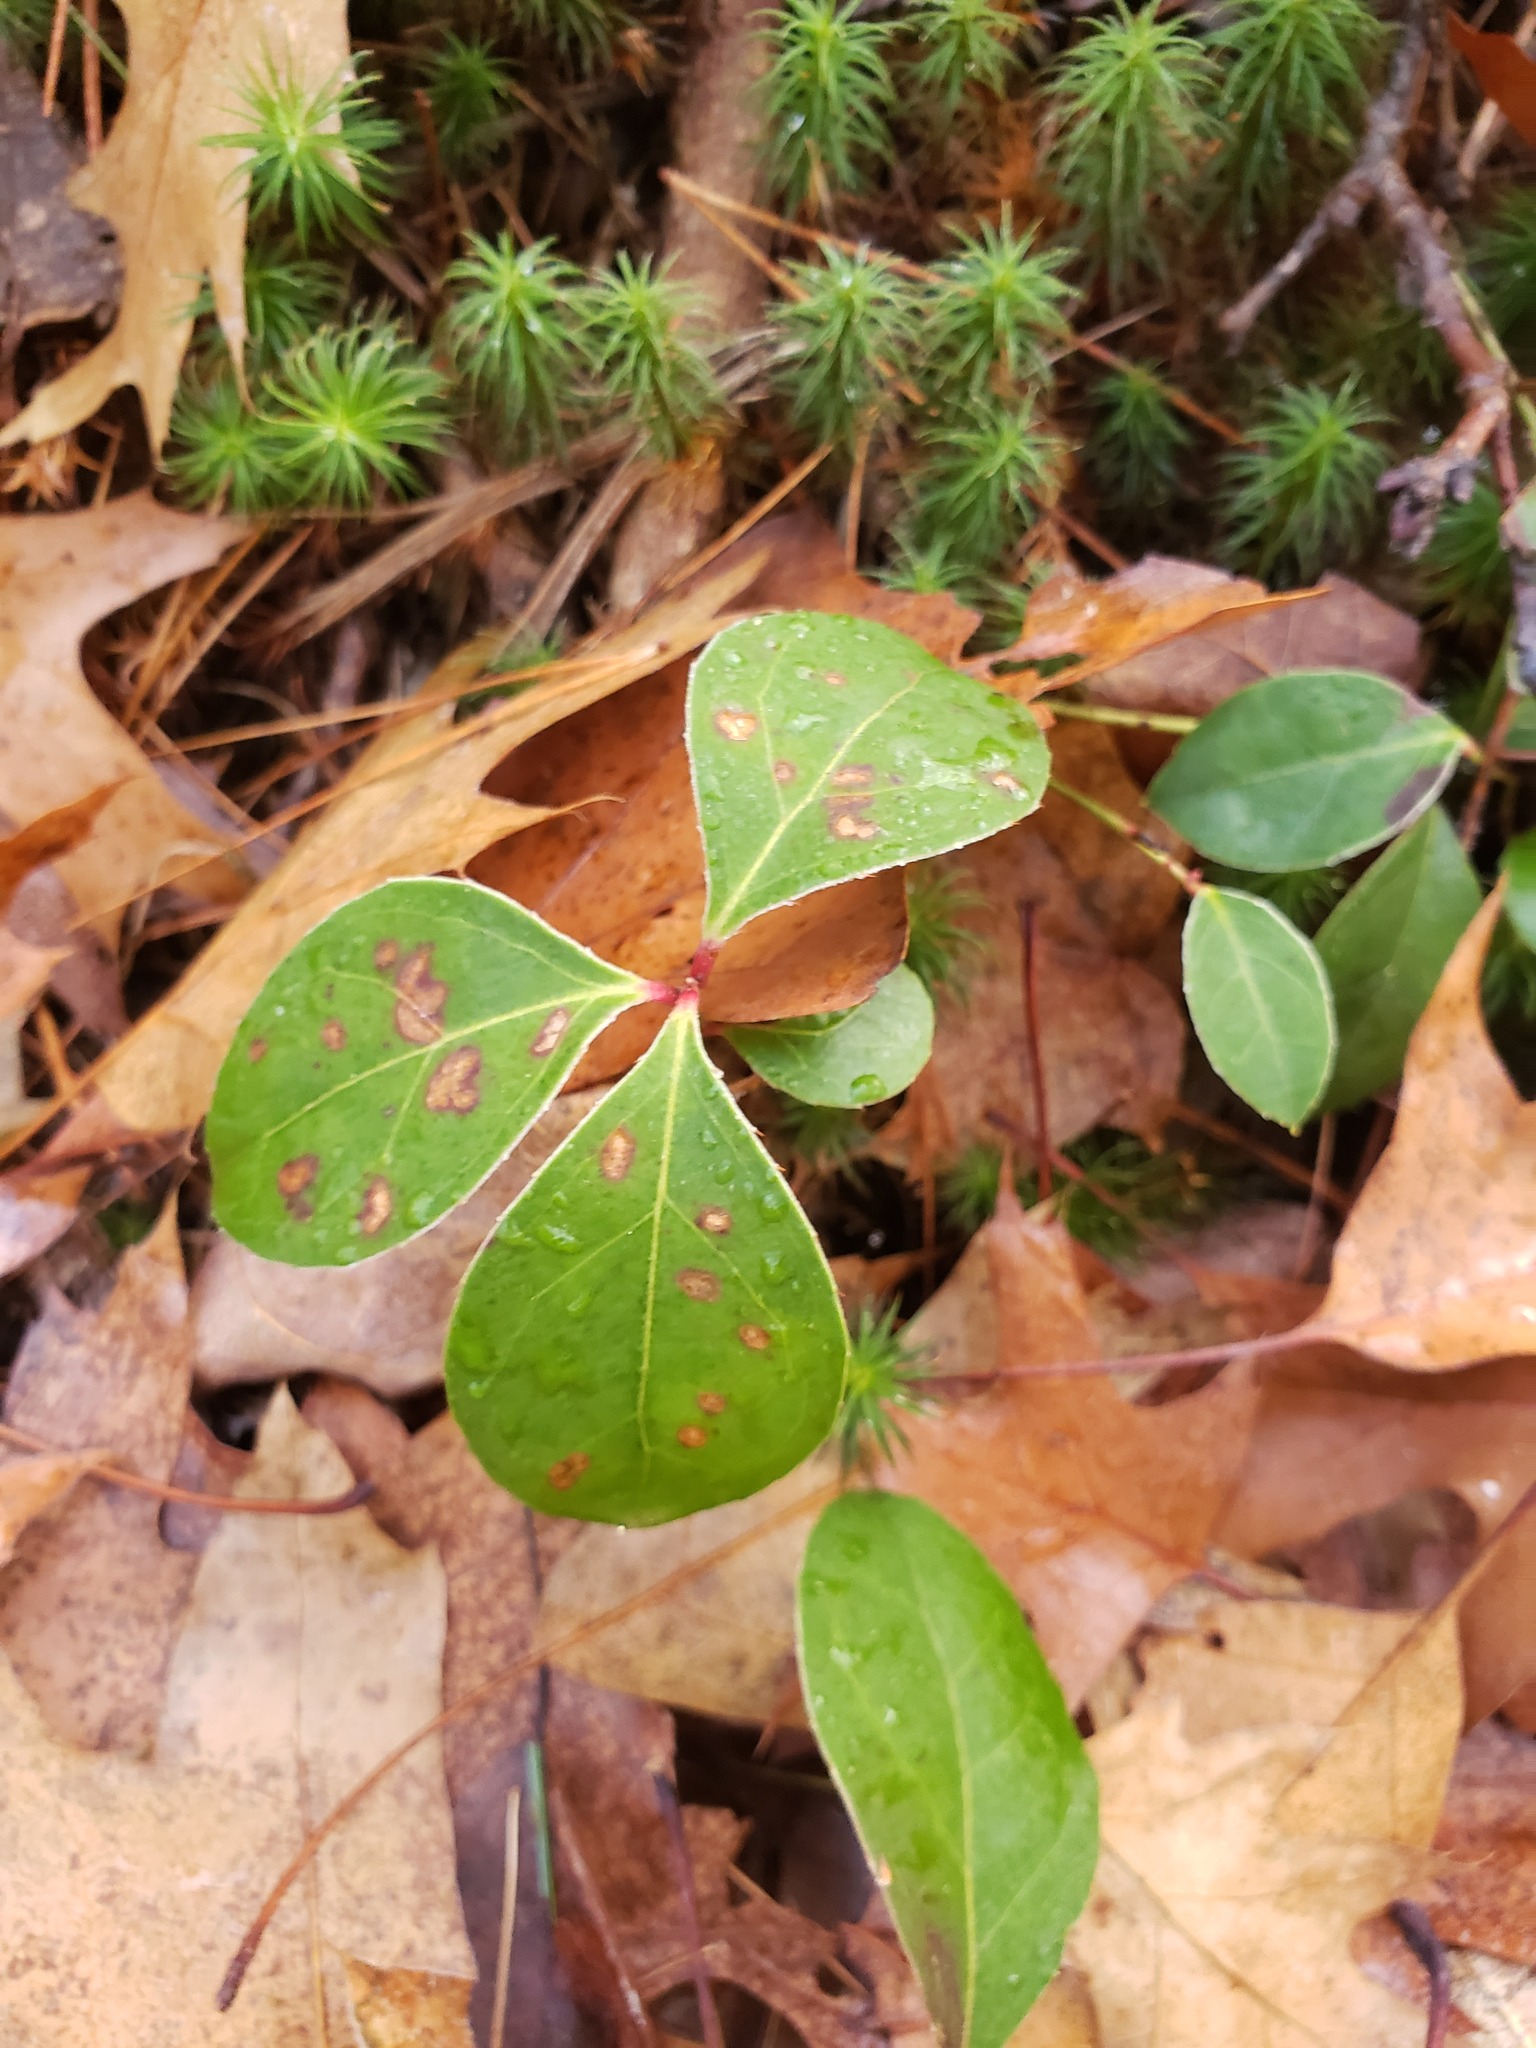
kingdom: Plantae
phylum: Tracheophyta
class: Magnoliopsida
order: Ericales
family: Ericaceae
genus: Gaultheria
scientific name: Gaultheria procumbens
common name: Checkerberry
